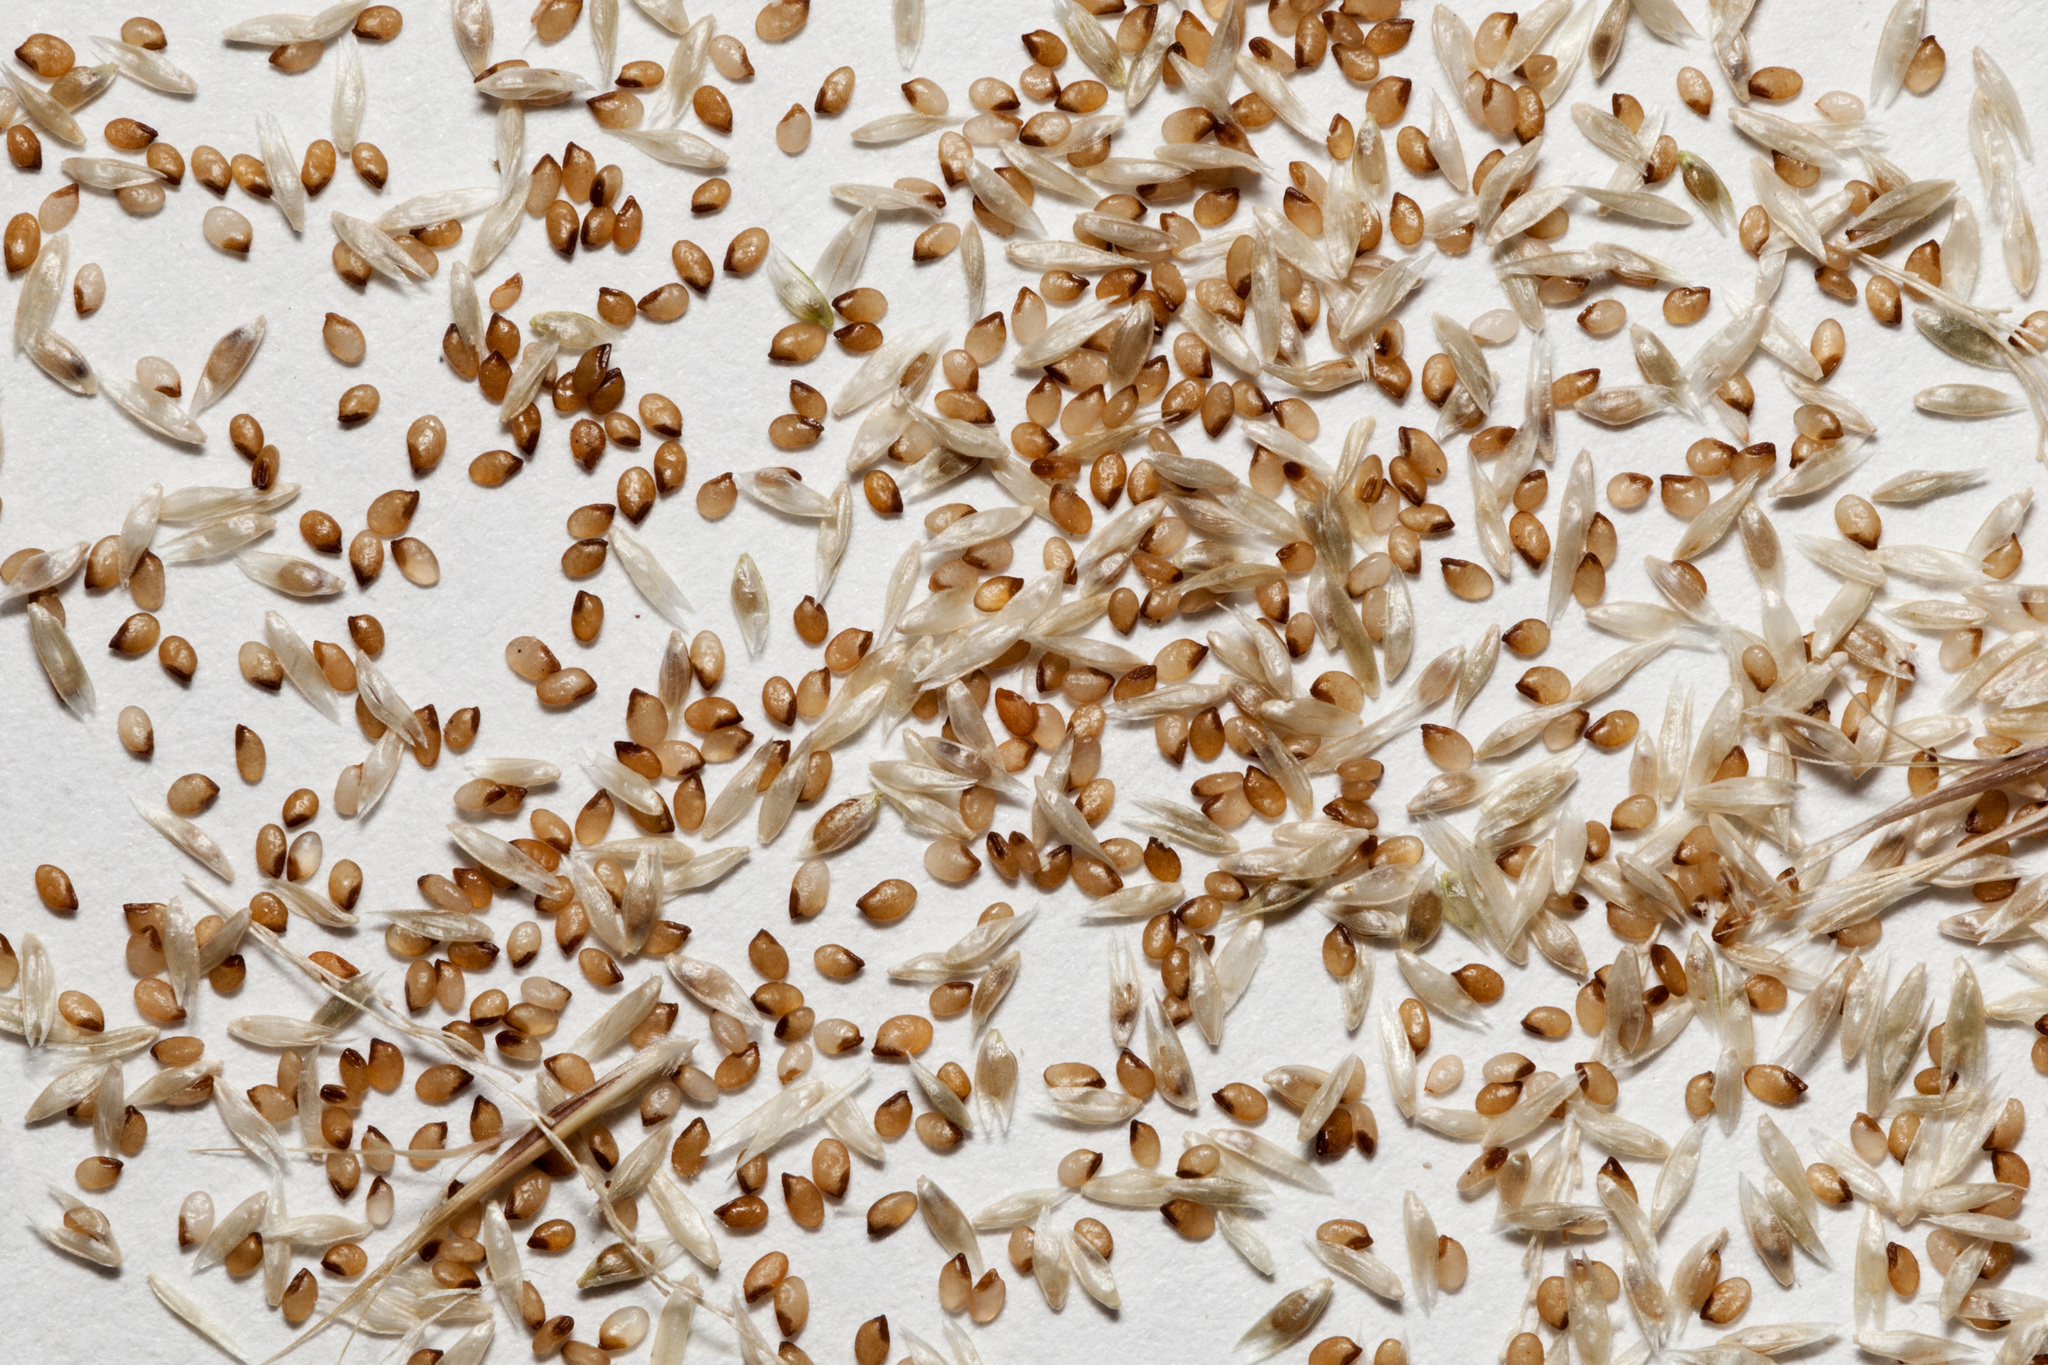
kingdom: Plantae
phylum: Tracheophyta
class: Liliopsida
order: Poales
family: Poaceae
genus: Sporobolus
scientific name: Sporobolus cryptandrus
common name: Sand dropseed
